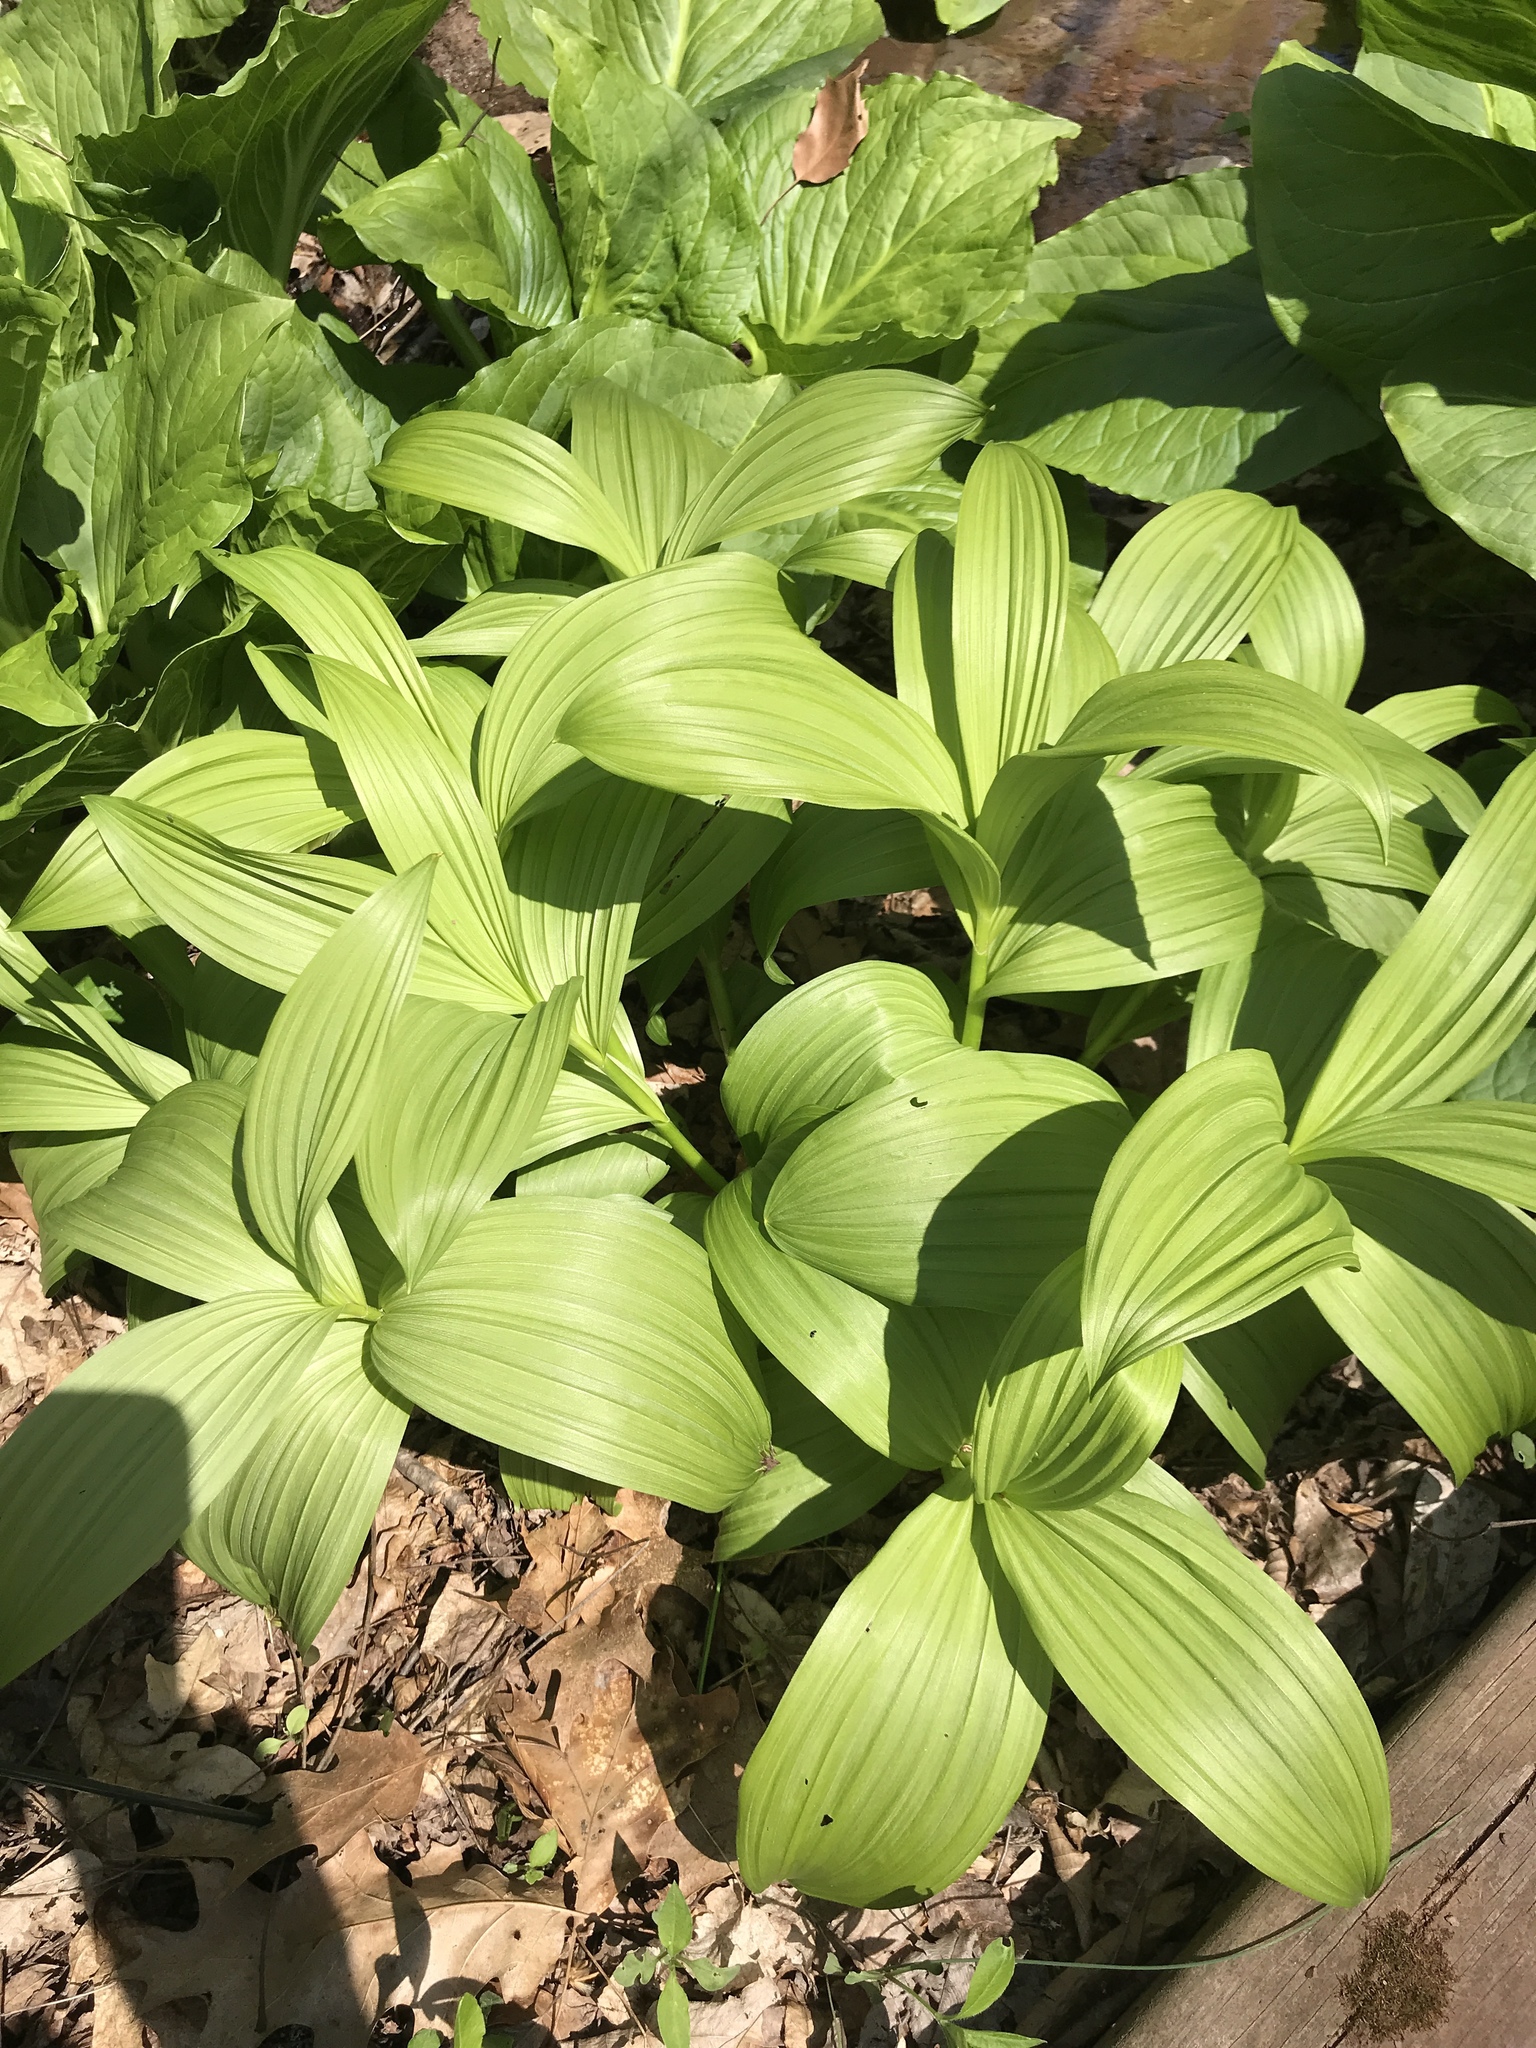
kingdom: Plantae
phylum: Tracheophyta
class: Liliopsida
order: Liliales
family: Melanthiaceae
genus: Veratrum
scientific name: Veratrum viride
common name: American false hellebore
